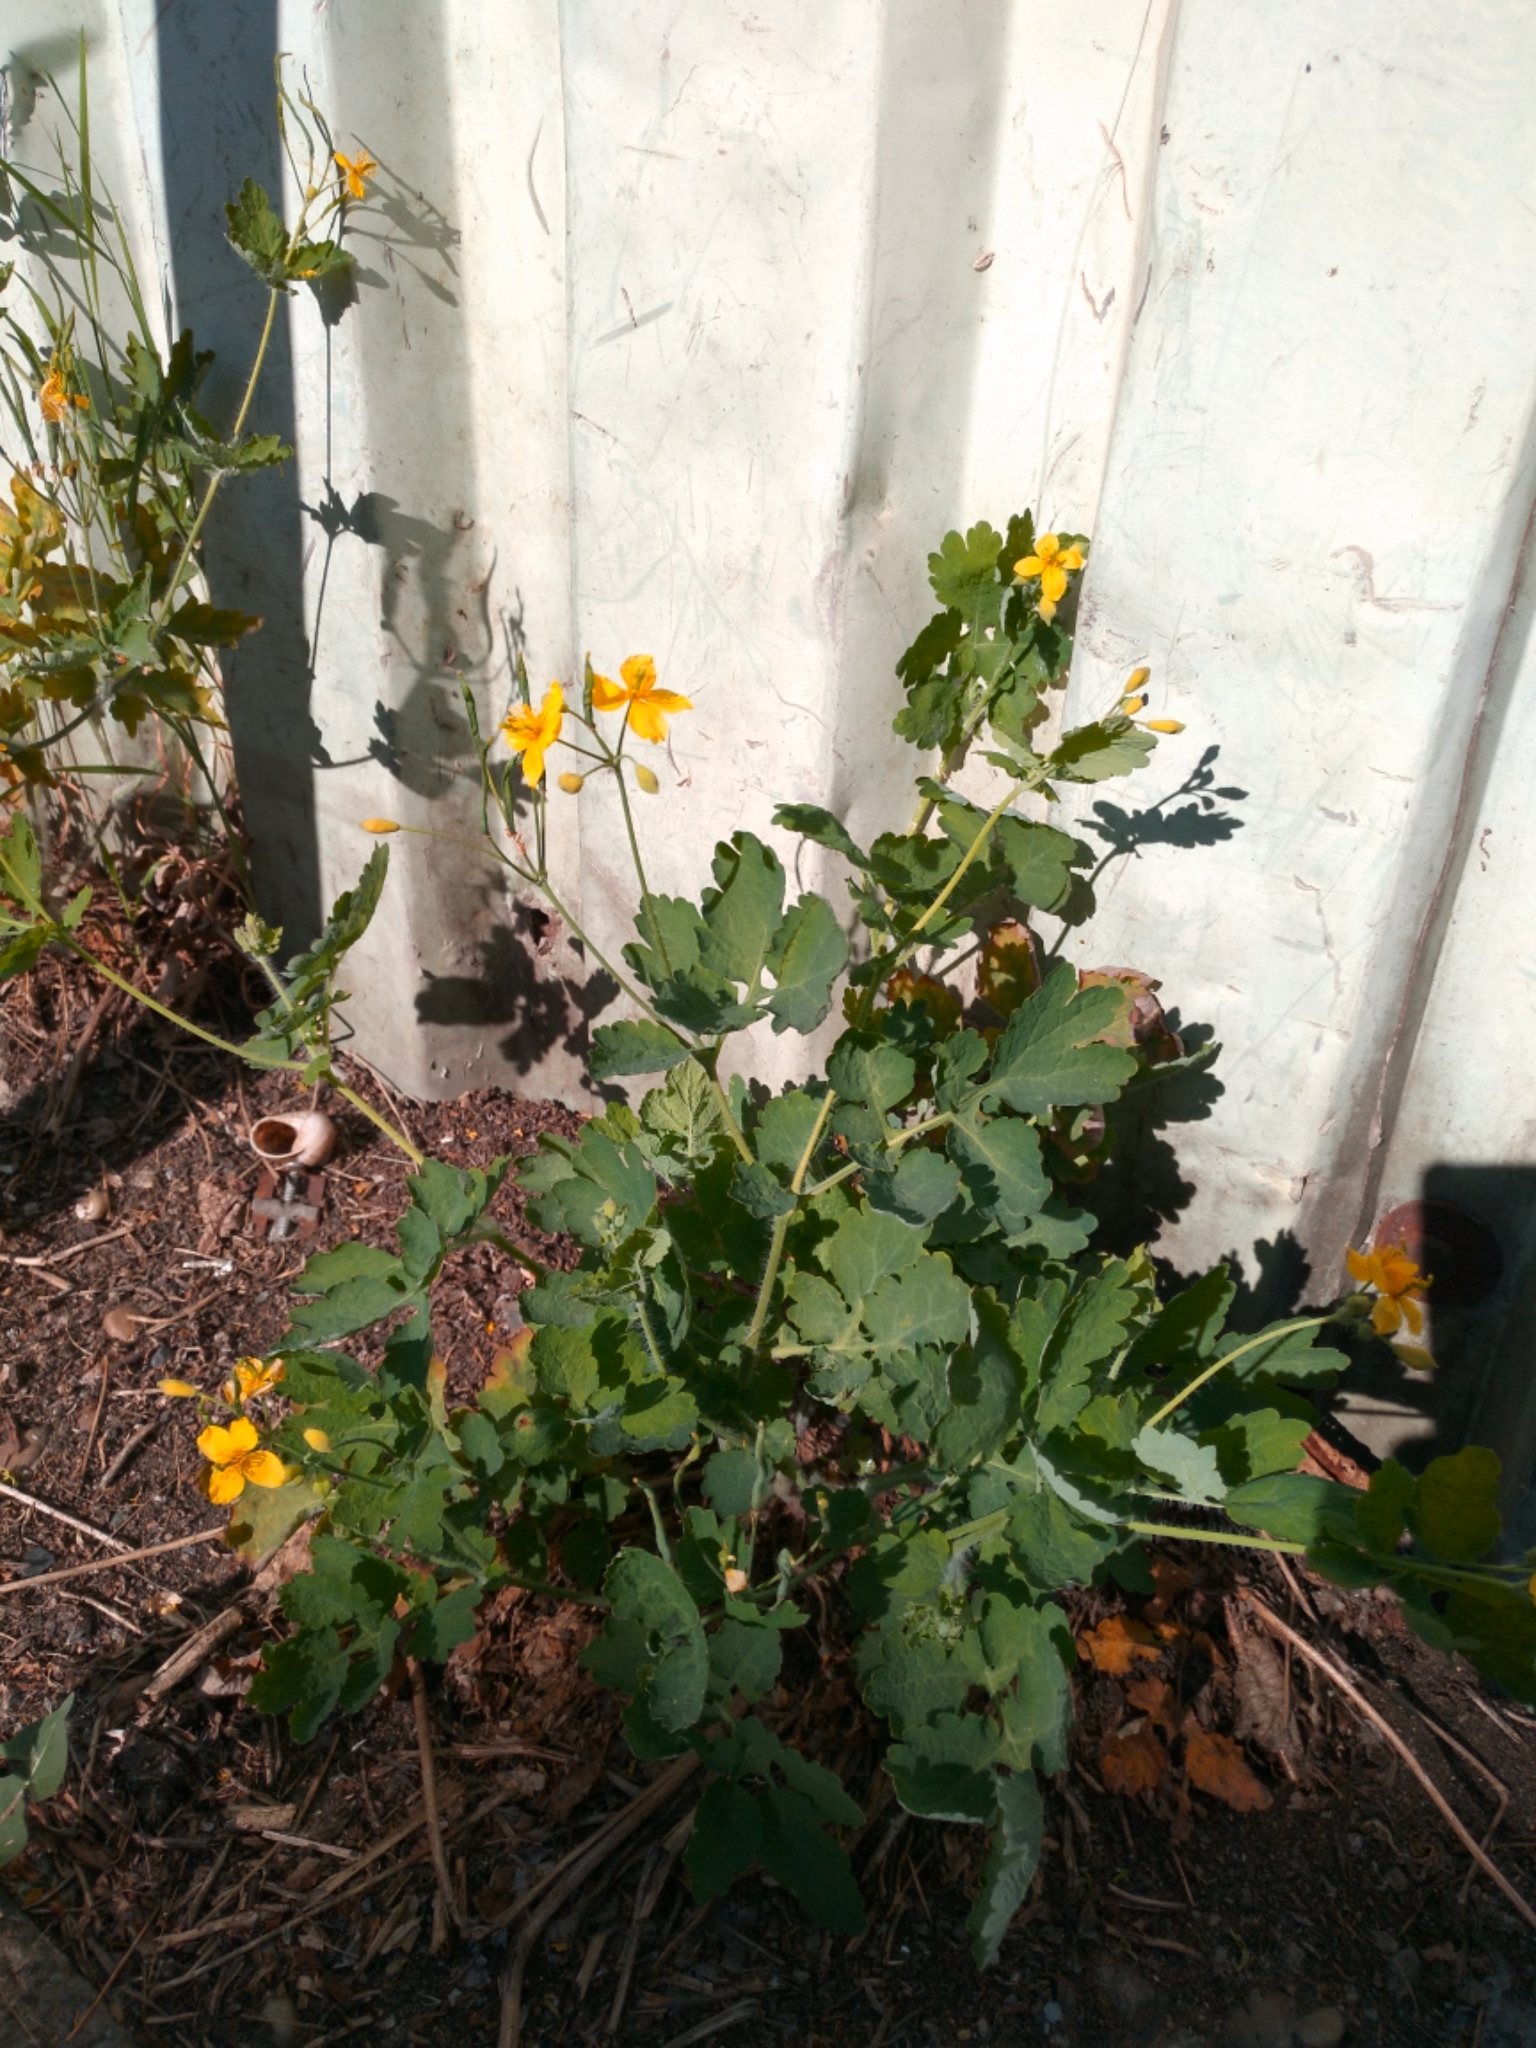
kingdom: Plantae
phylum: Tracheophyta
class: Magnoliopsida
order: Ranunculales
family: Papaveraceae
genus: Chelidonium
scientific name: Chelidonium majus
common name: Greater celandine
